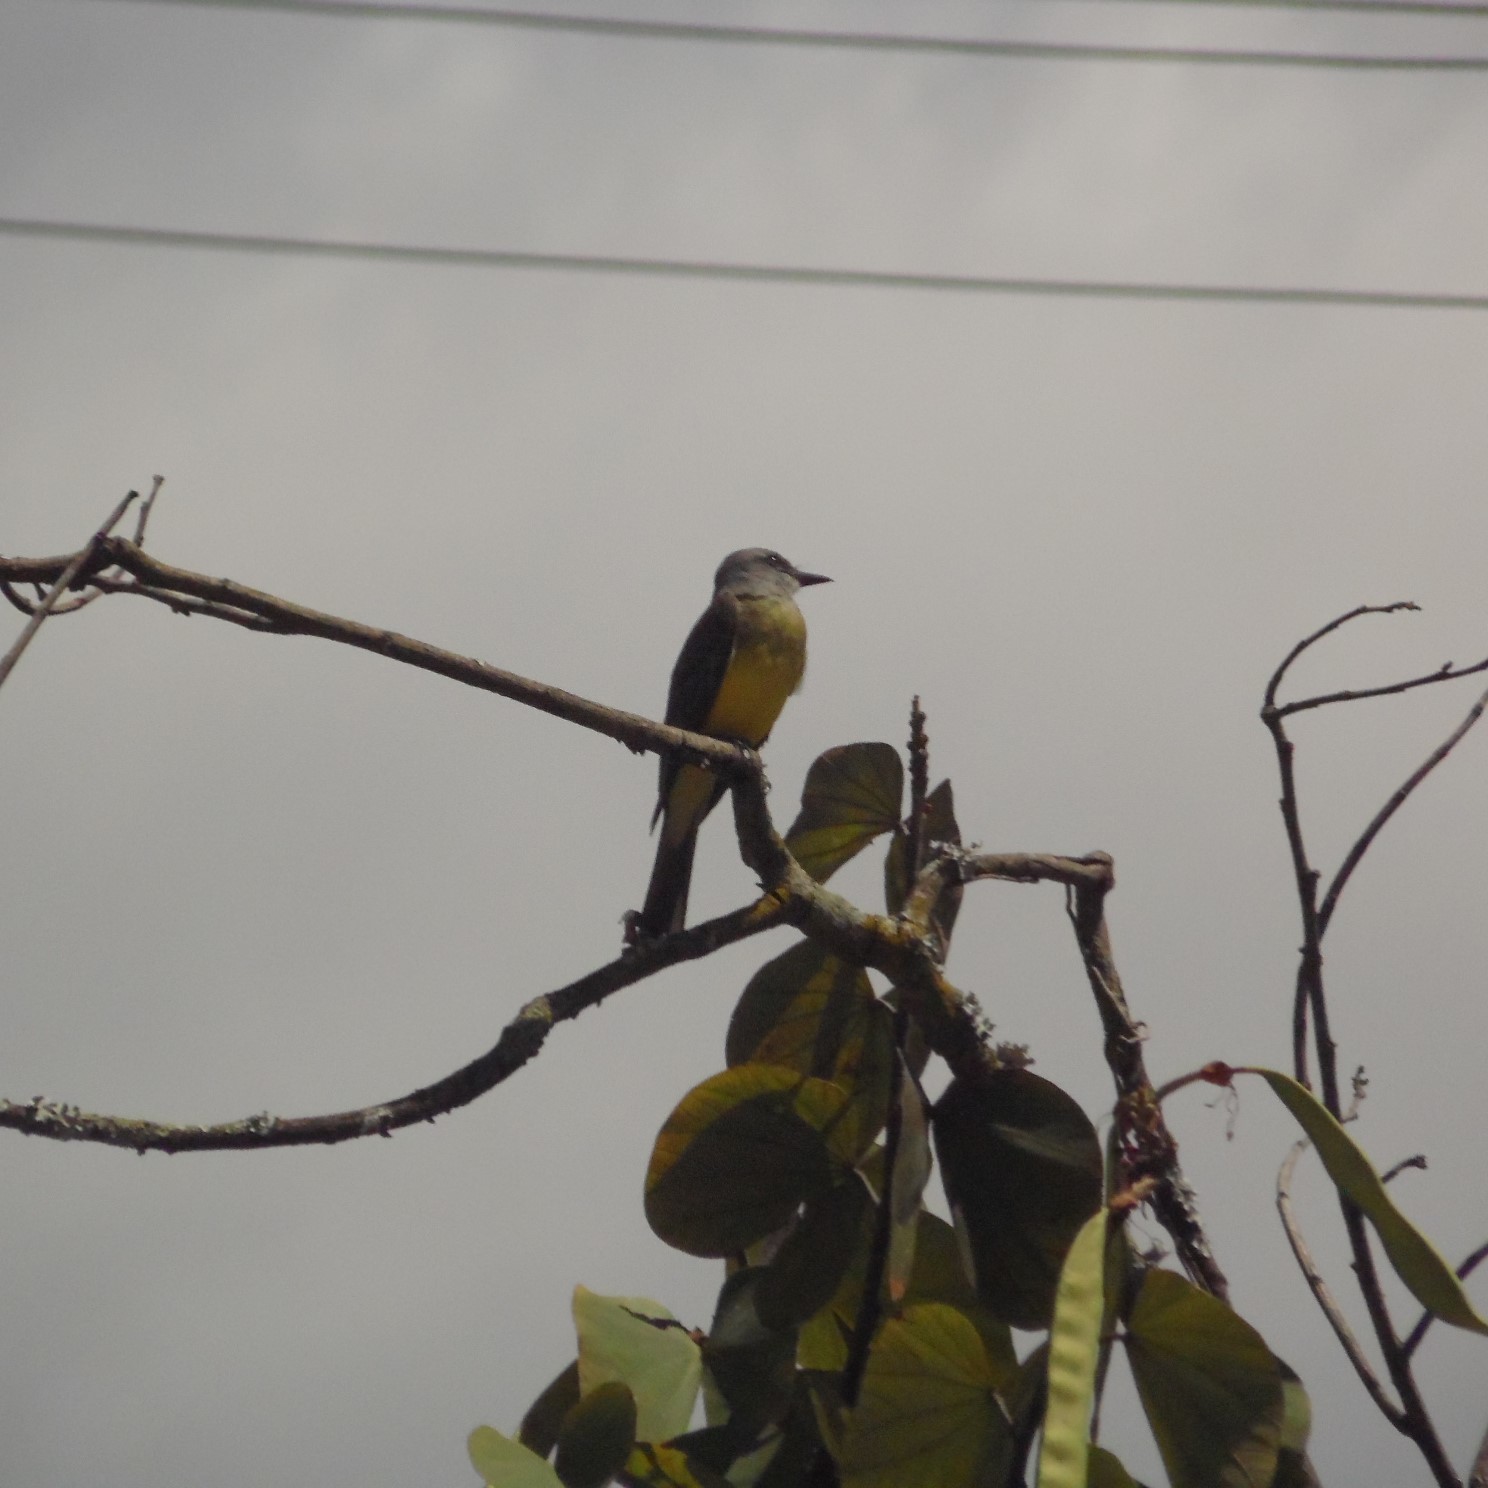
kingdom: Animalia
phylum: Chordata
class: Aves
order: Passeriformes
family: Tyrannidae
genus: Tyrannus
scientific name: Tyrannus melancholicus
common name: Tropical kingbird
